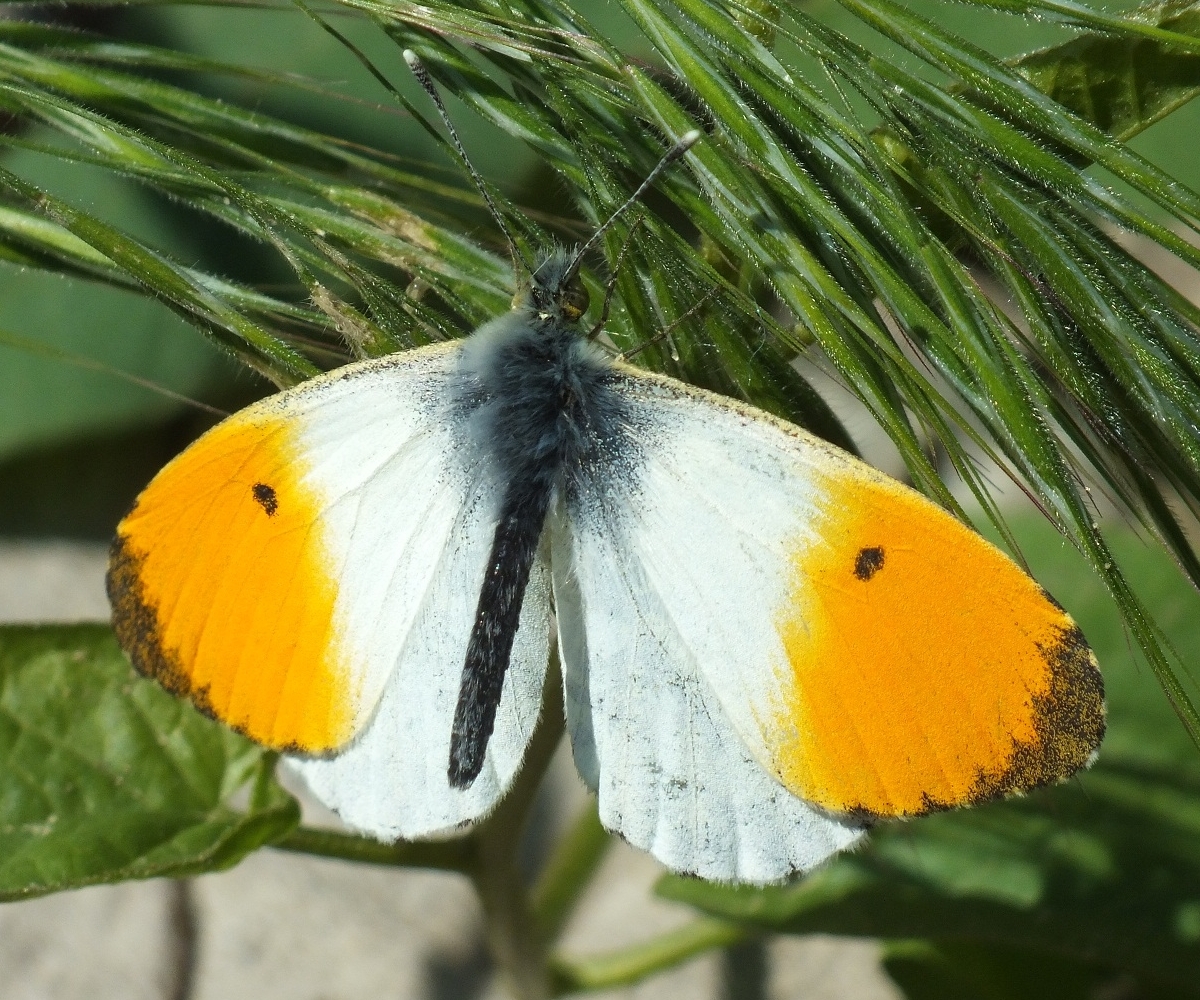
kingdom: Animalia
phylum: Arthropoda
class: Insecta
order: Lepidoptera
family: Pieridae
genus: Anthocharis
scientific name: Anthocharis cardamines
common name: Orange-tip
